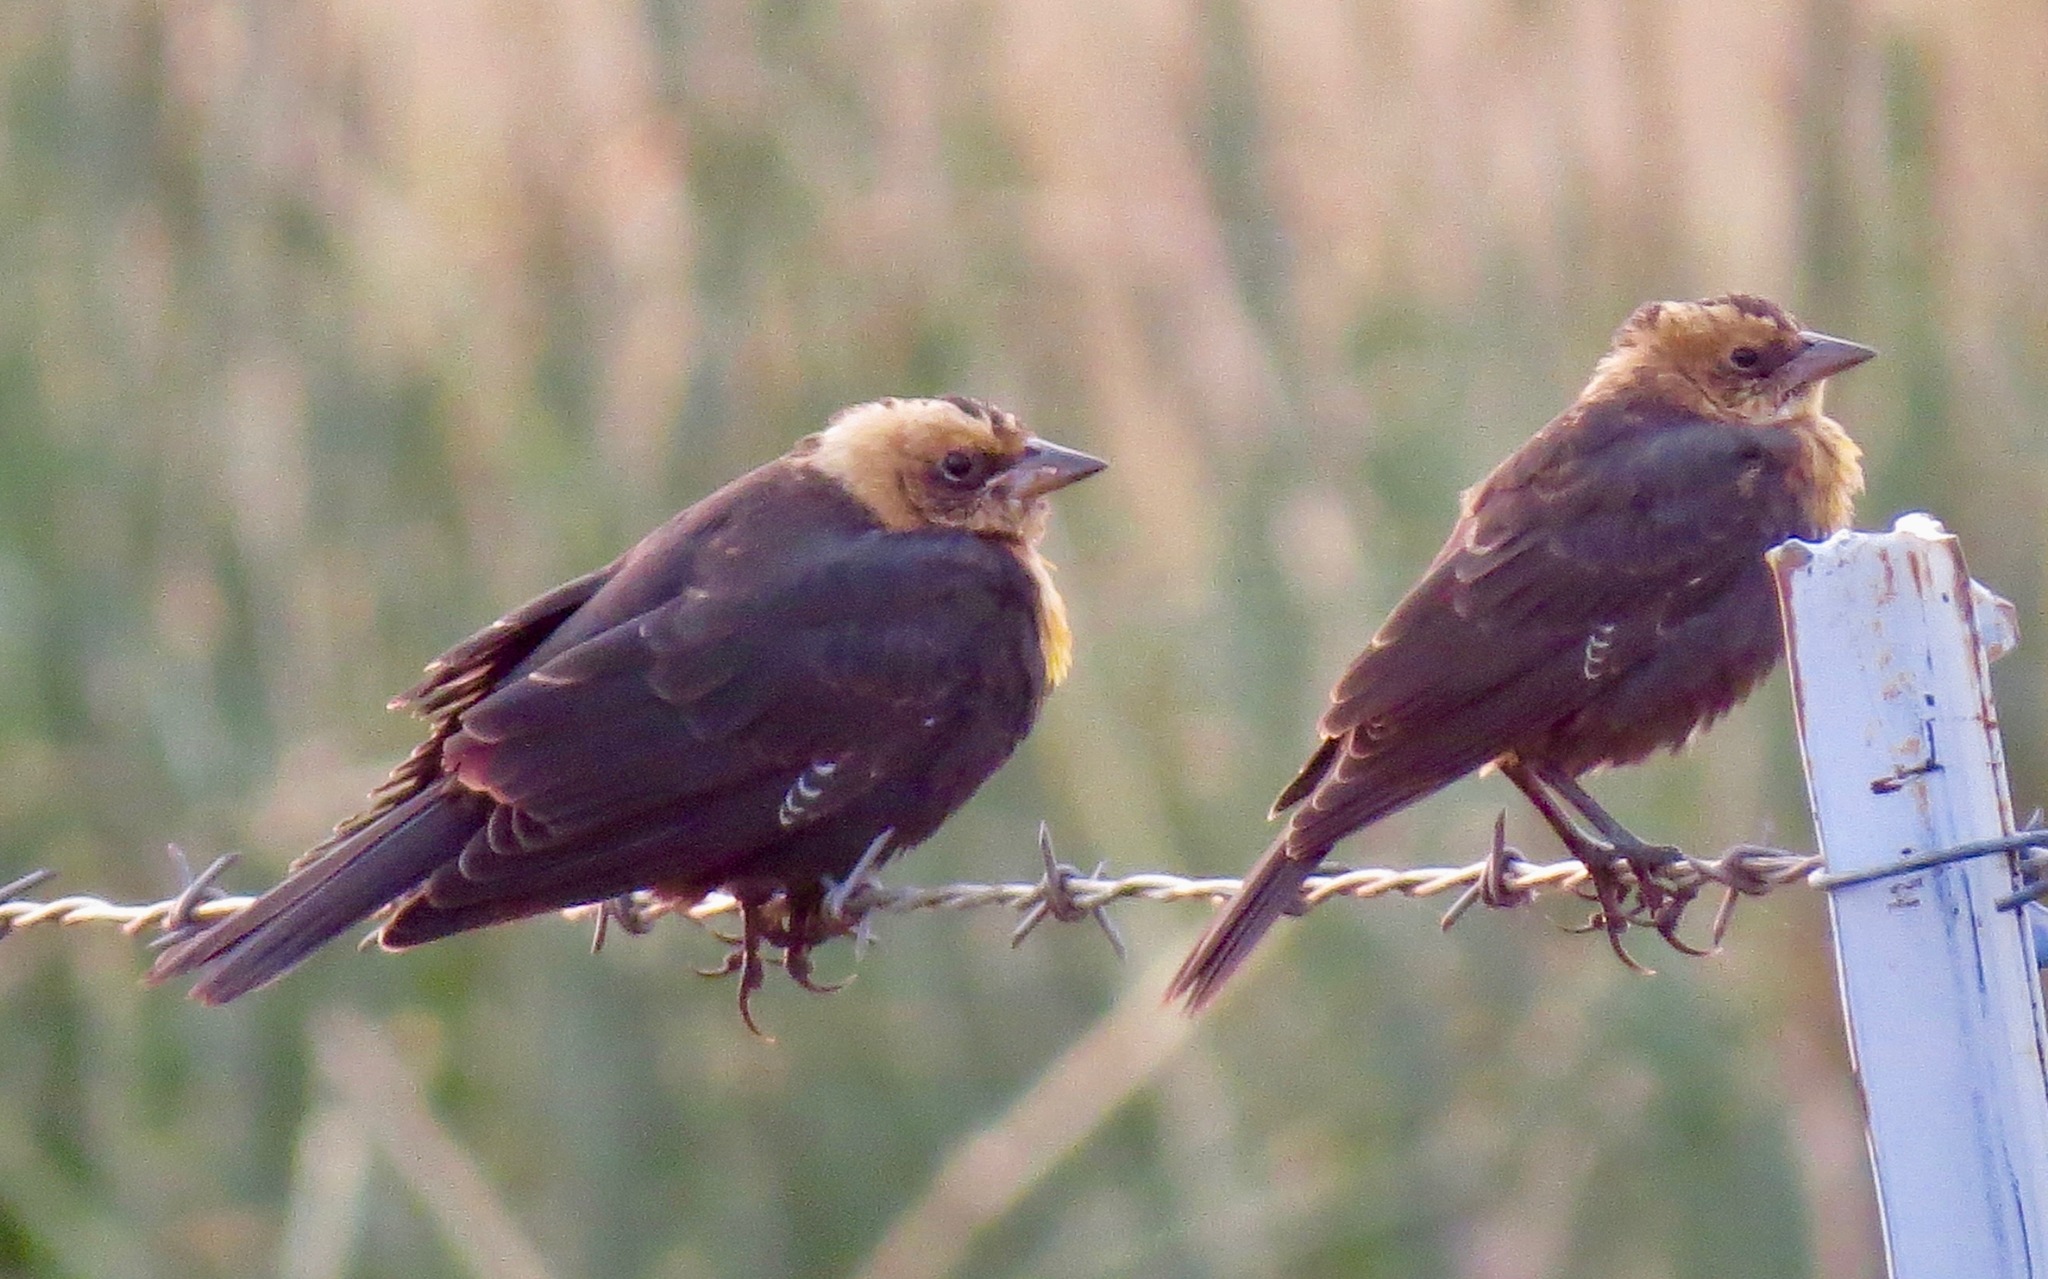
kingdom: Animalia
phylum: Chordata
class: Aves
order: Passeriformes
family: Icteridae
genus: Xanthocephalus
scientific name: Xanthocephalus xanthocephalus
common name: Yellow-headed blackbird
